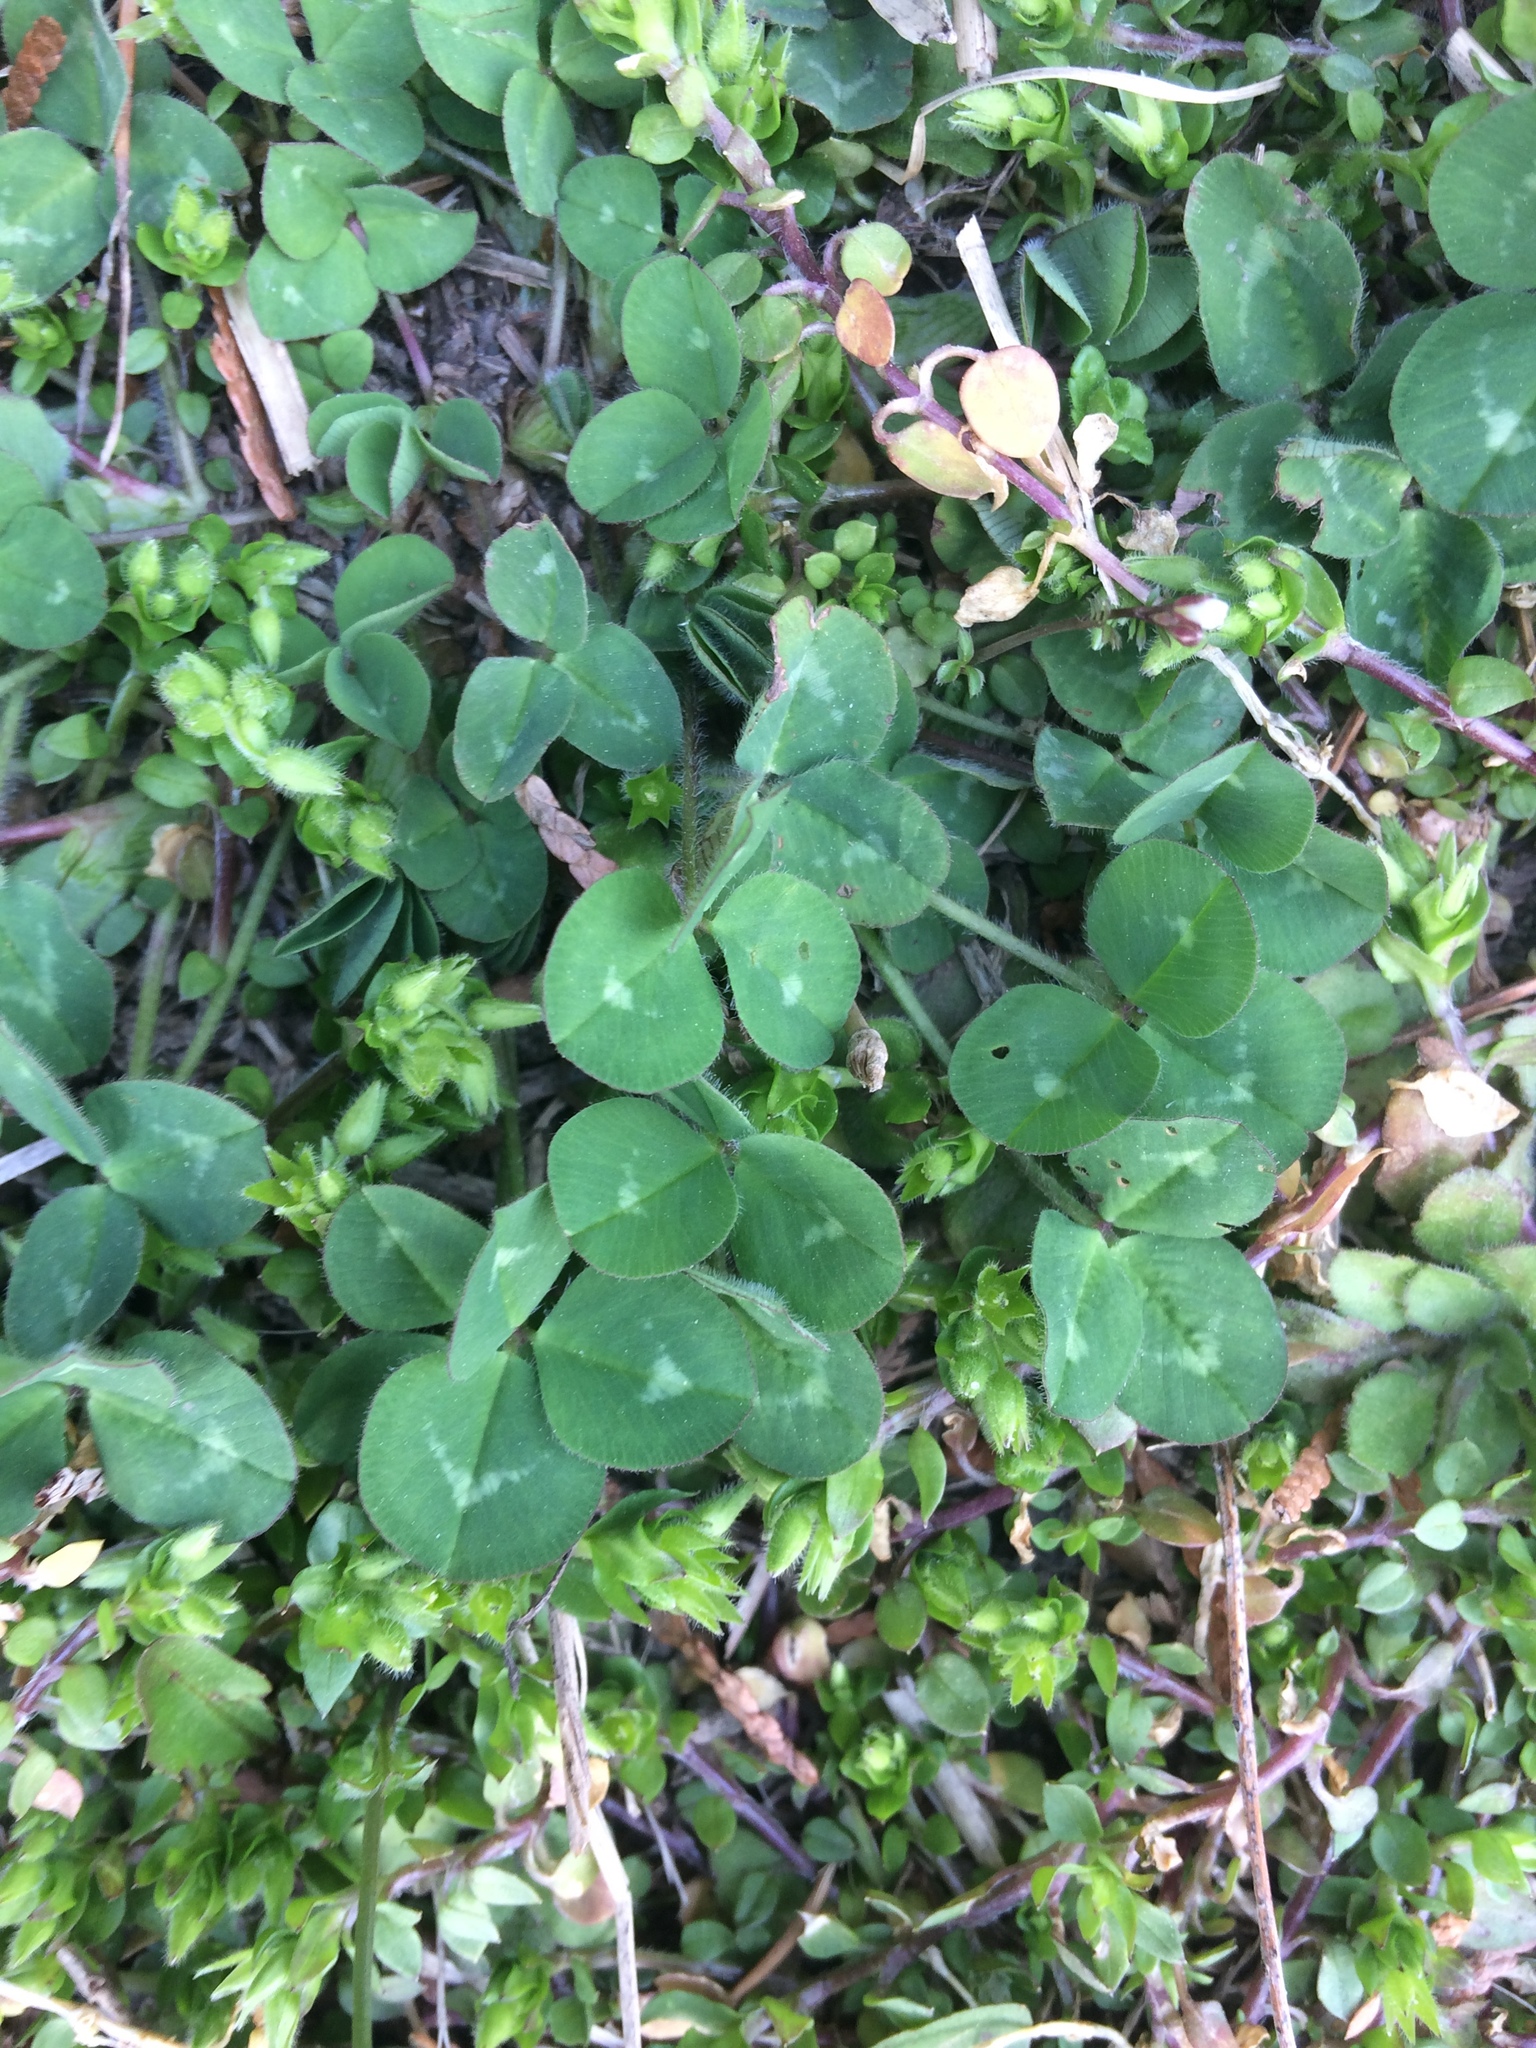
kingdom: Plantae
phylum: Tracheophyta
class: Magnoliopsida
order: Fabales
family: Fabaceae
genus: Trifolium
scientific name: Trifolium pratense
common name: Red clover
